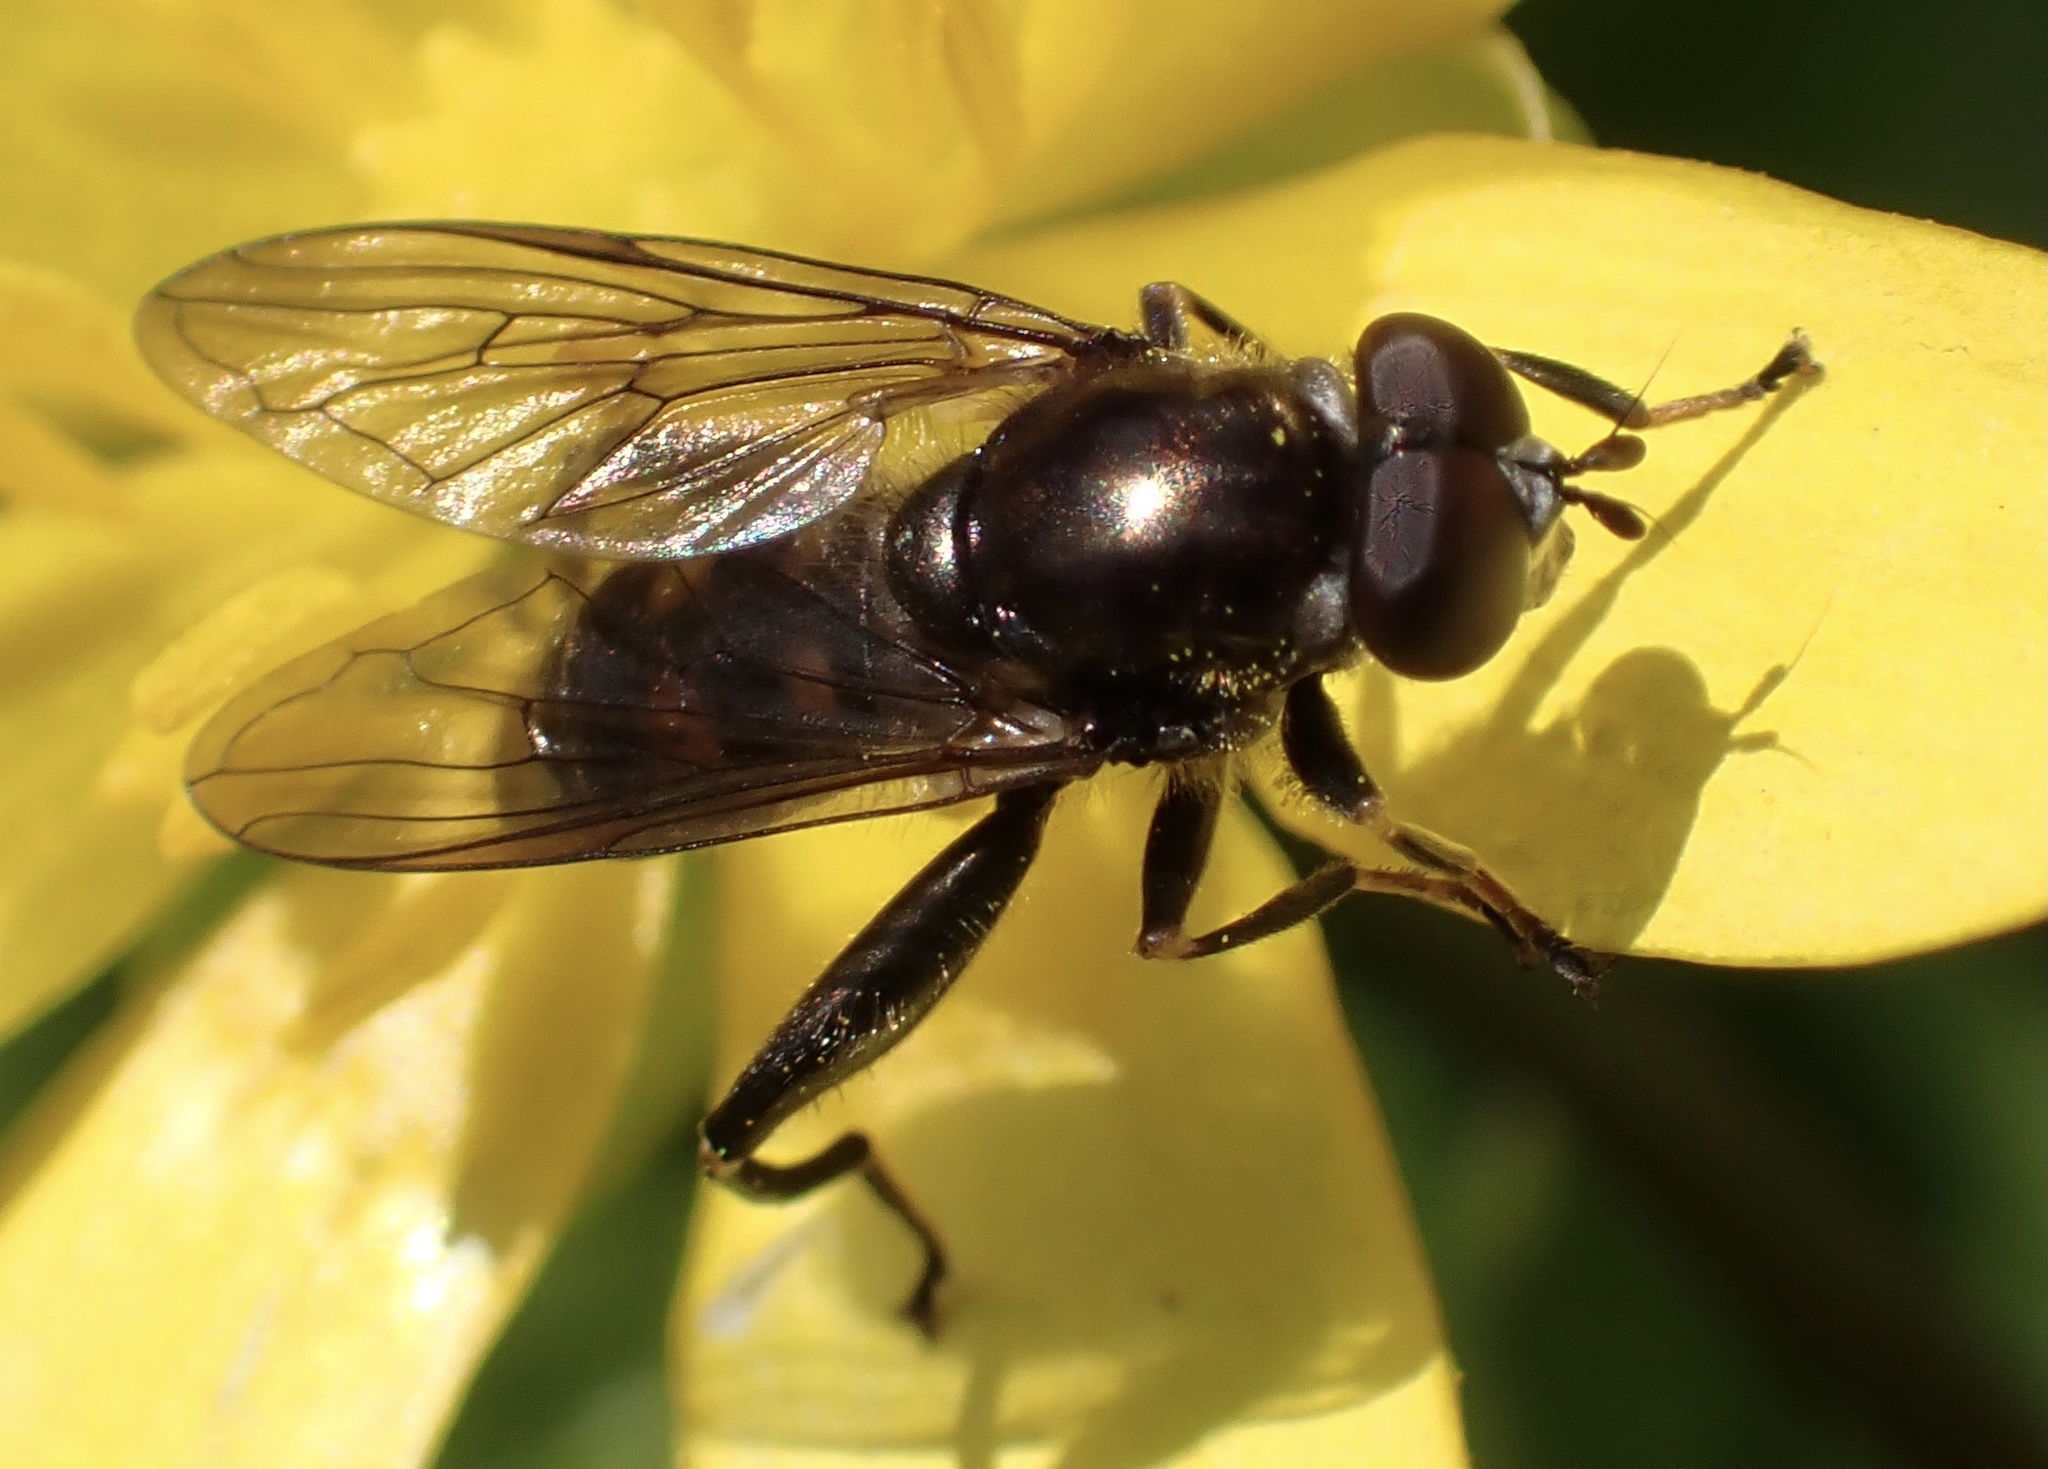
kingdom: Animalia
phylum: Arthropoda
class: Insecta
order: Diptera
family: Syrphidae
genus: Chalcosyrphus
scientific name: Chalcosyrphus nemorum
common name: Dusky-banded forest fly
